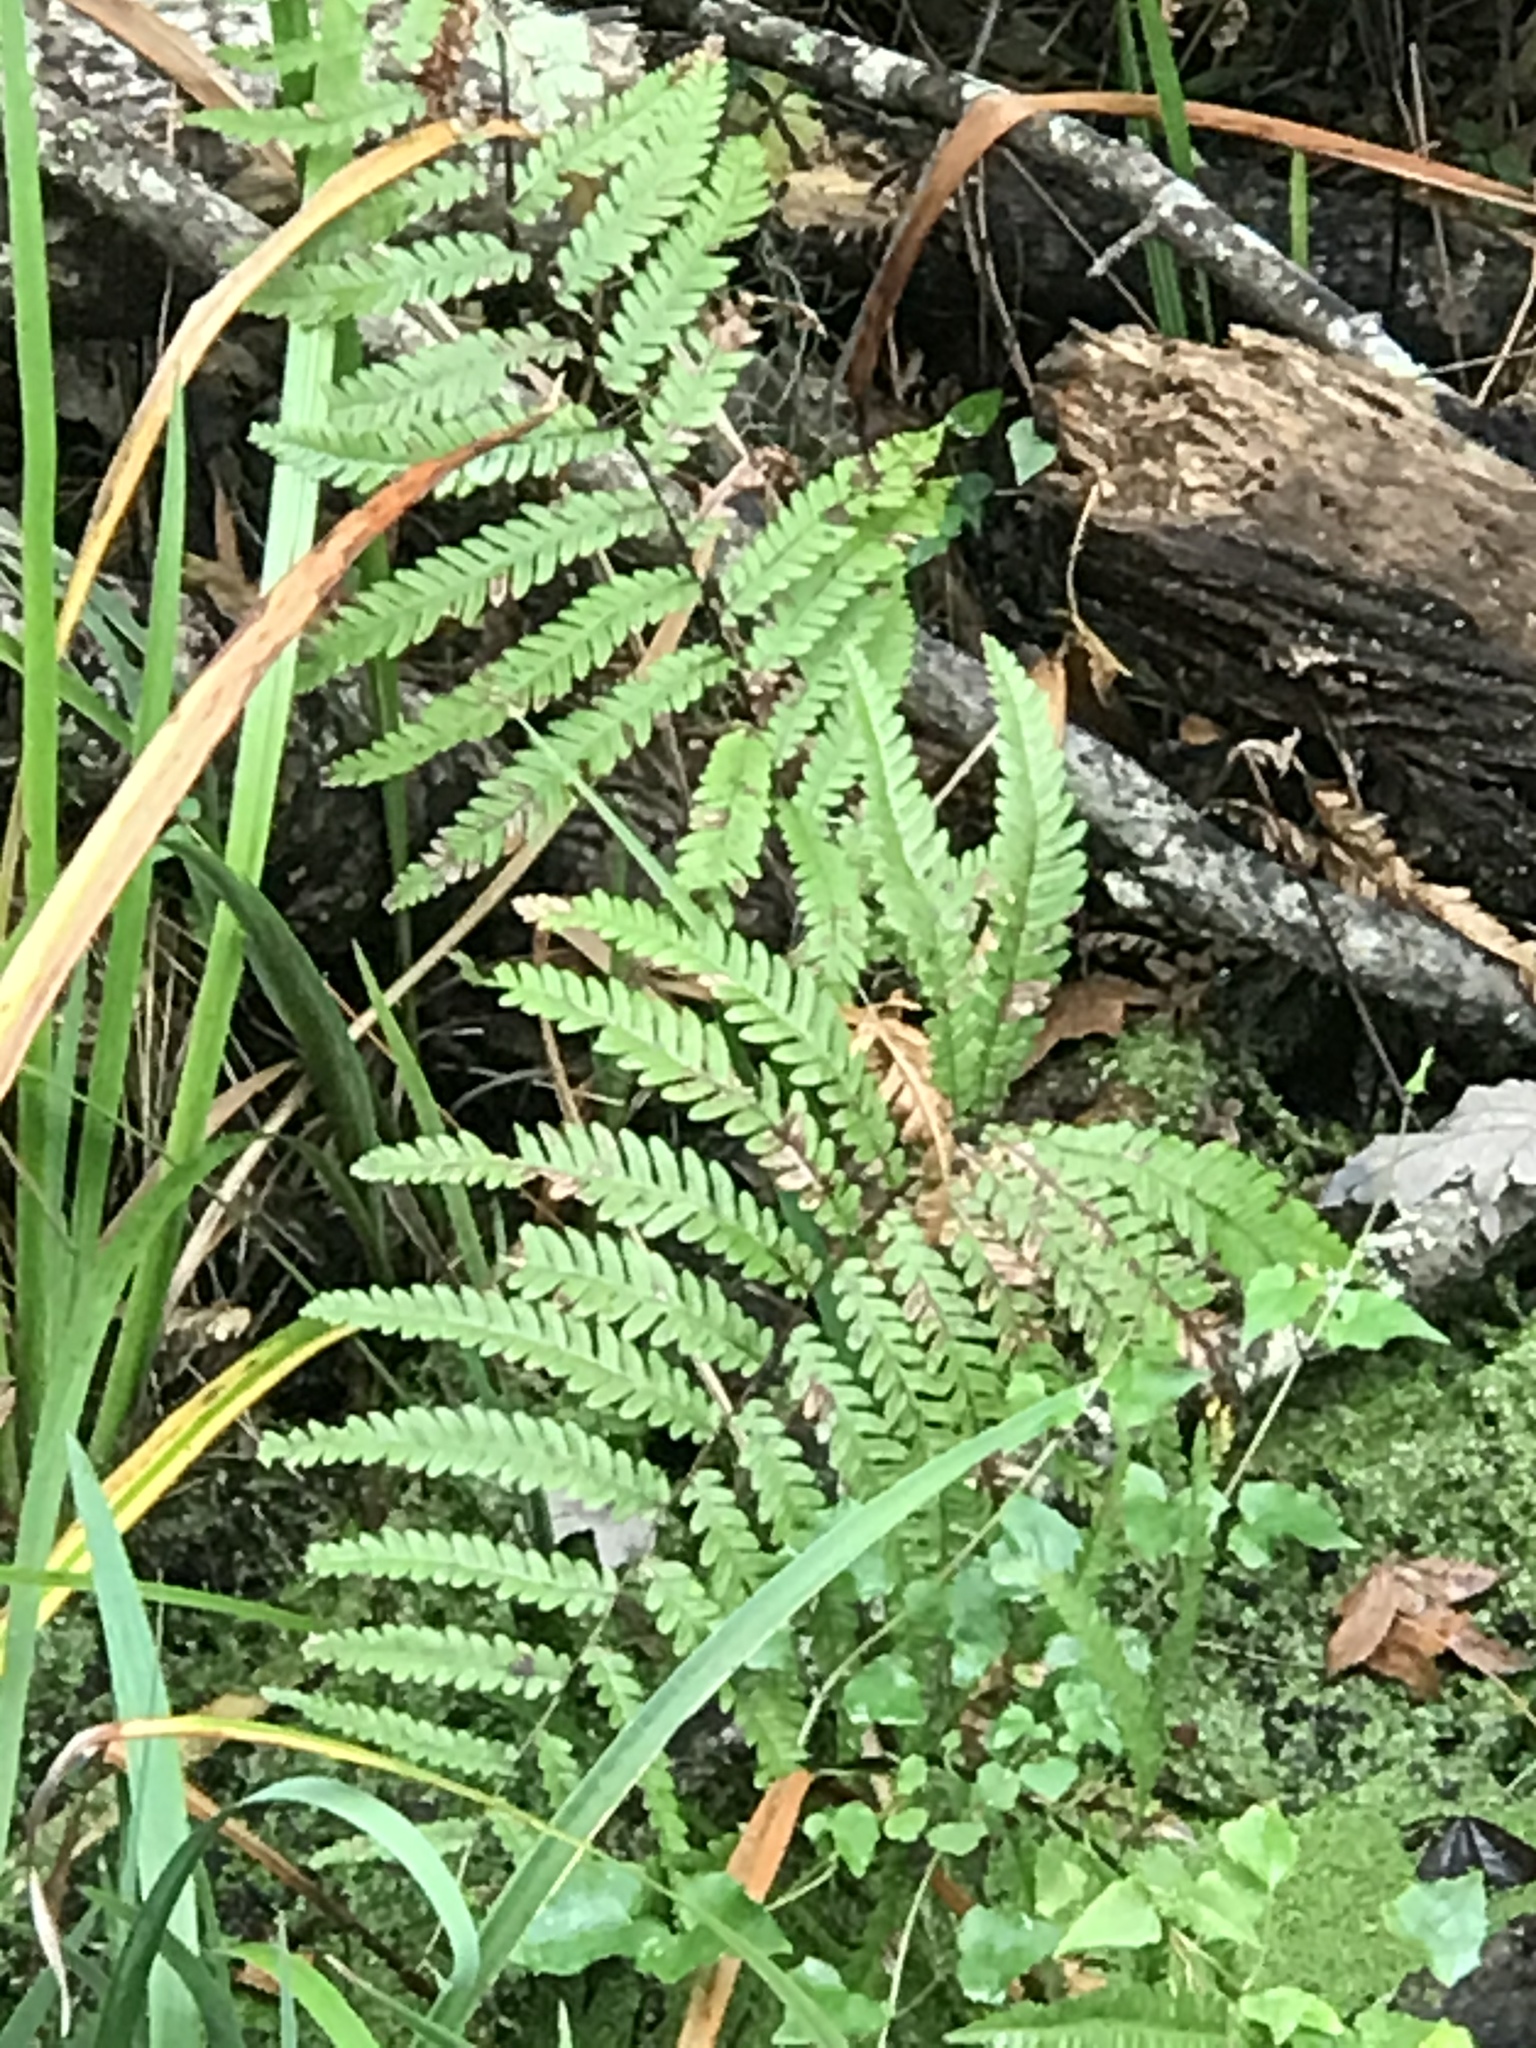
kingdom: Plantae
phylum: Tracheophyta
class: Polypodiopsida
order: Polypodiales
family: Blechnaceae
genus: Anchistea
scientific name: Anchistea virginica
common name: Virginia chain fern
